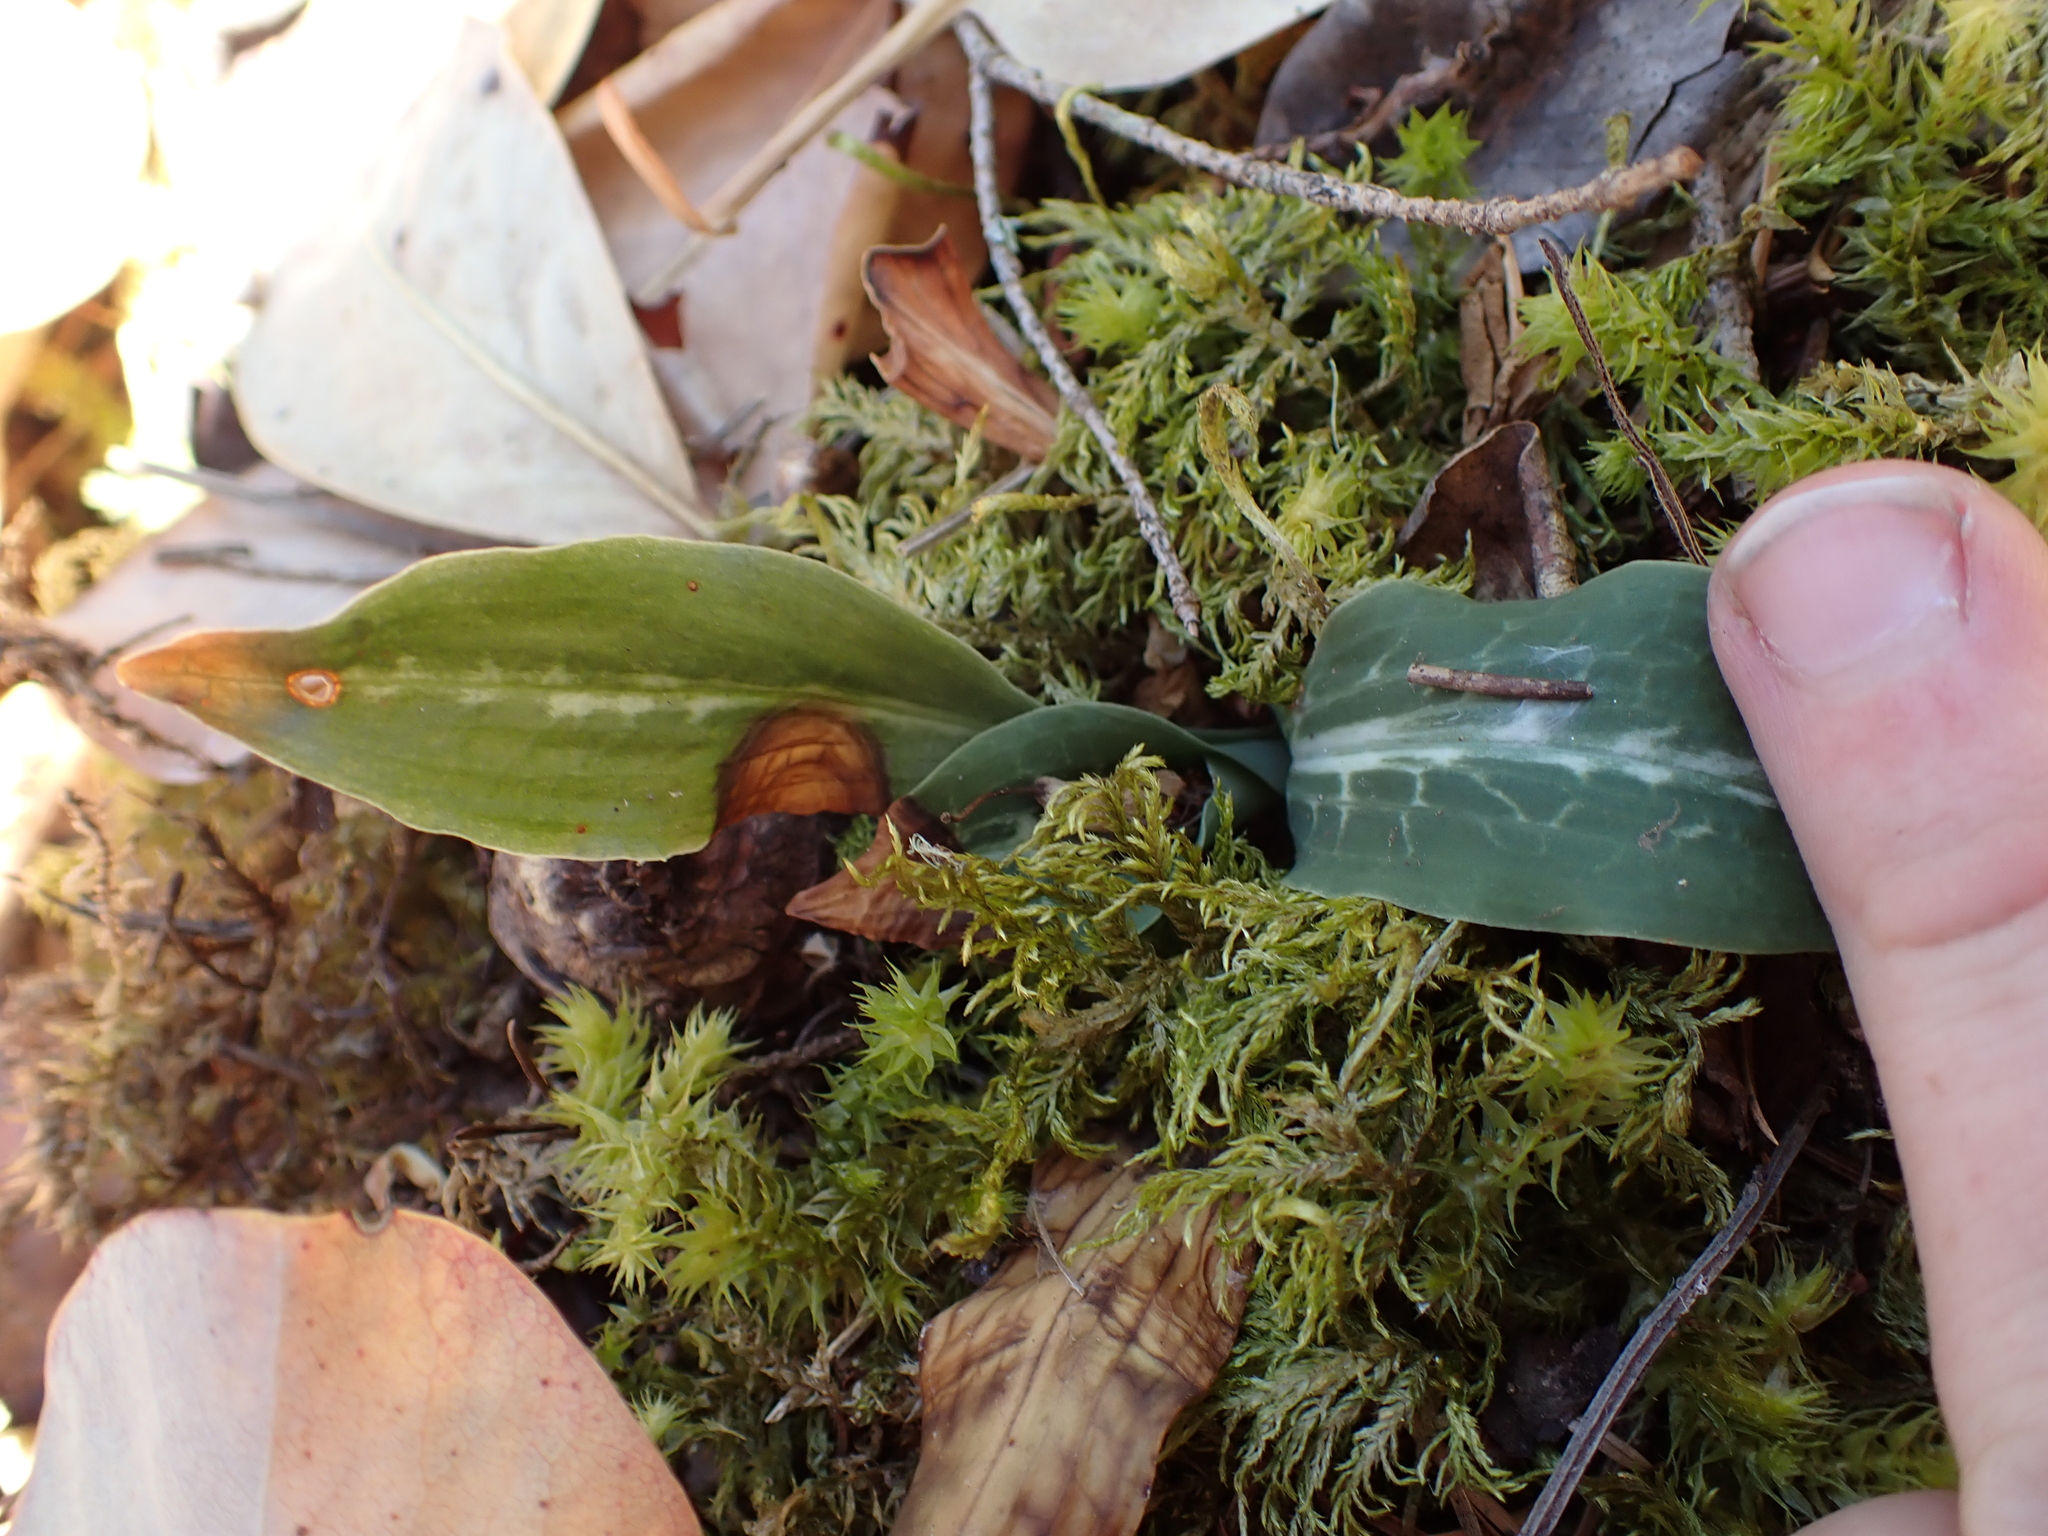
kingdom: Plantae
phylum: Tracheophyta
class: Liliopsida
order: Asparagales
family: Orchidaceae
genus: Goodyera
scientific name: Goodyera oblongifolia
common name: Giant rattlesnake-plantain
